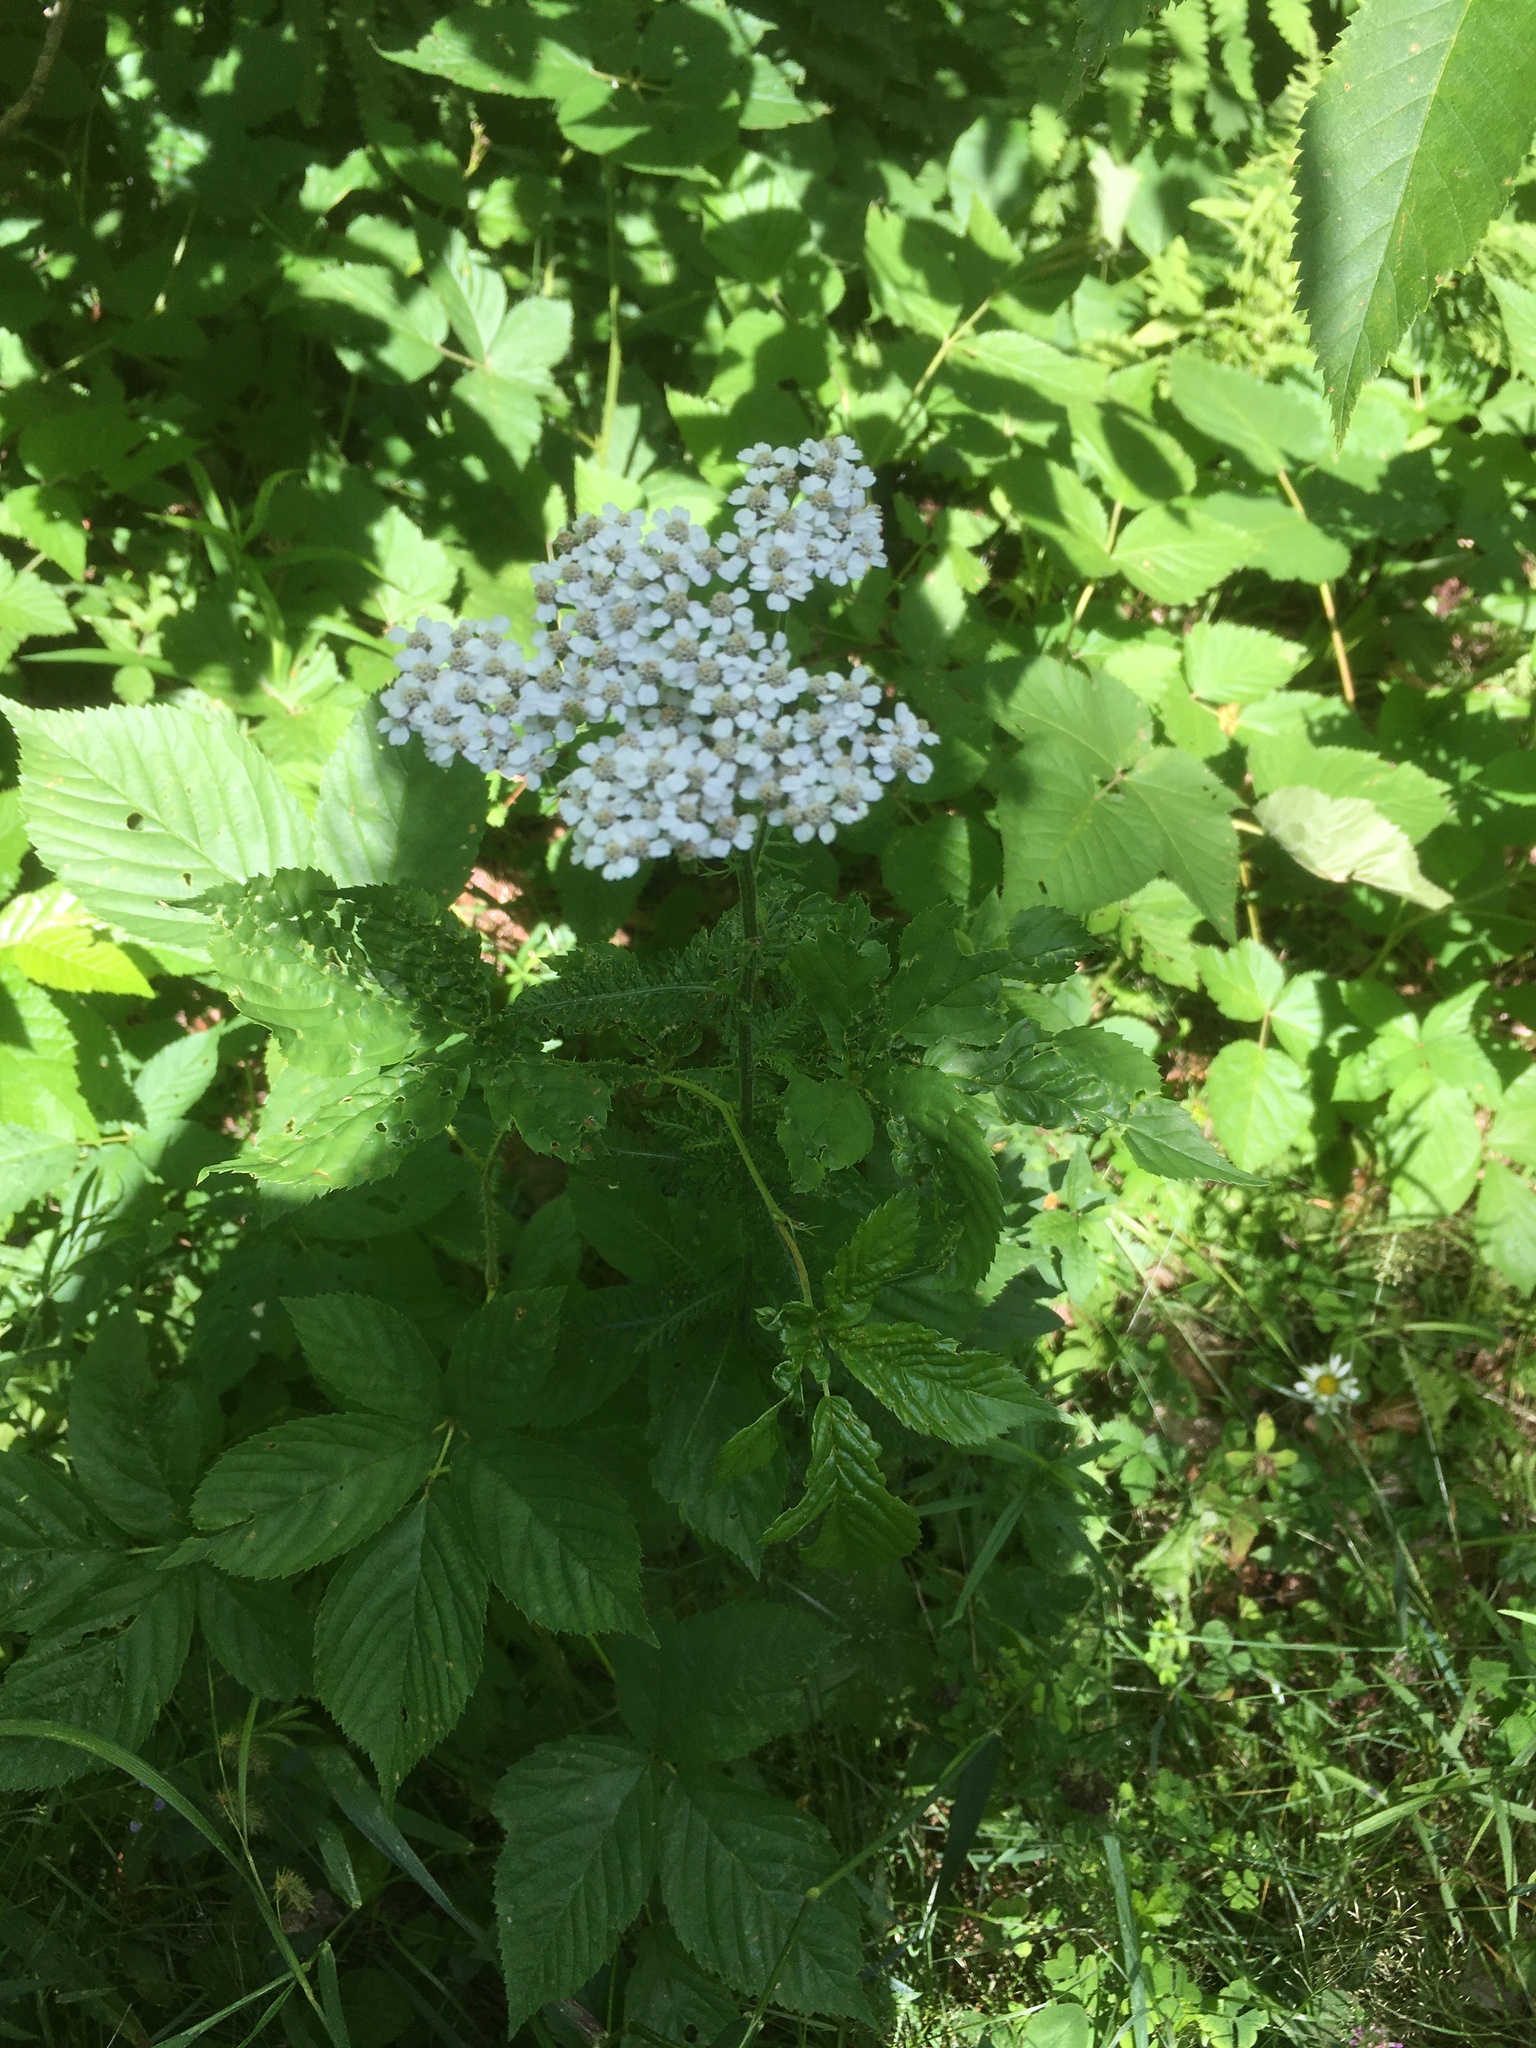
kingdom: Plantae
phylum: Tracheophyta
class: Magnoliopsida
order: Asterales
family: Asteraceae
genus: Achillea
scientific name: Achillea millefolium
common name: Yarrow
